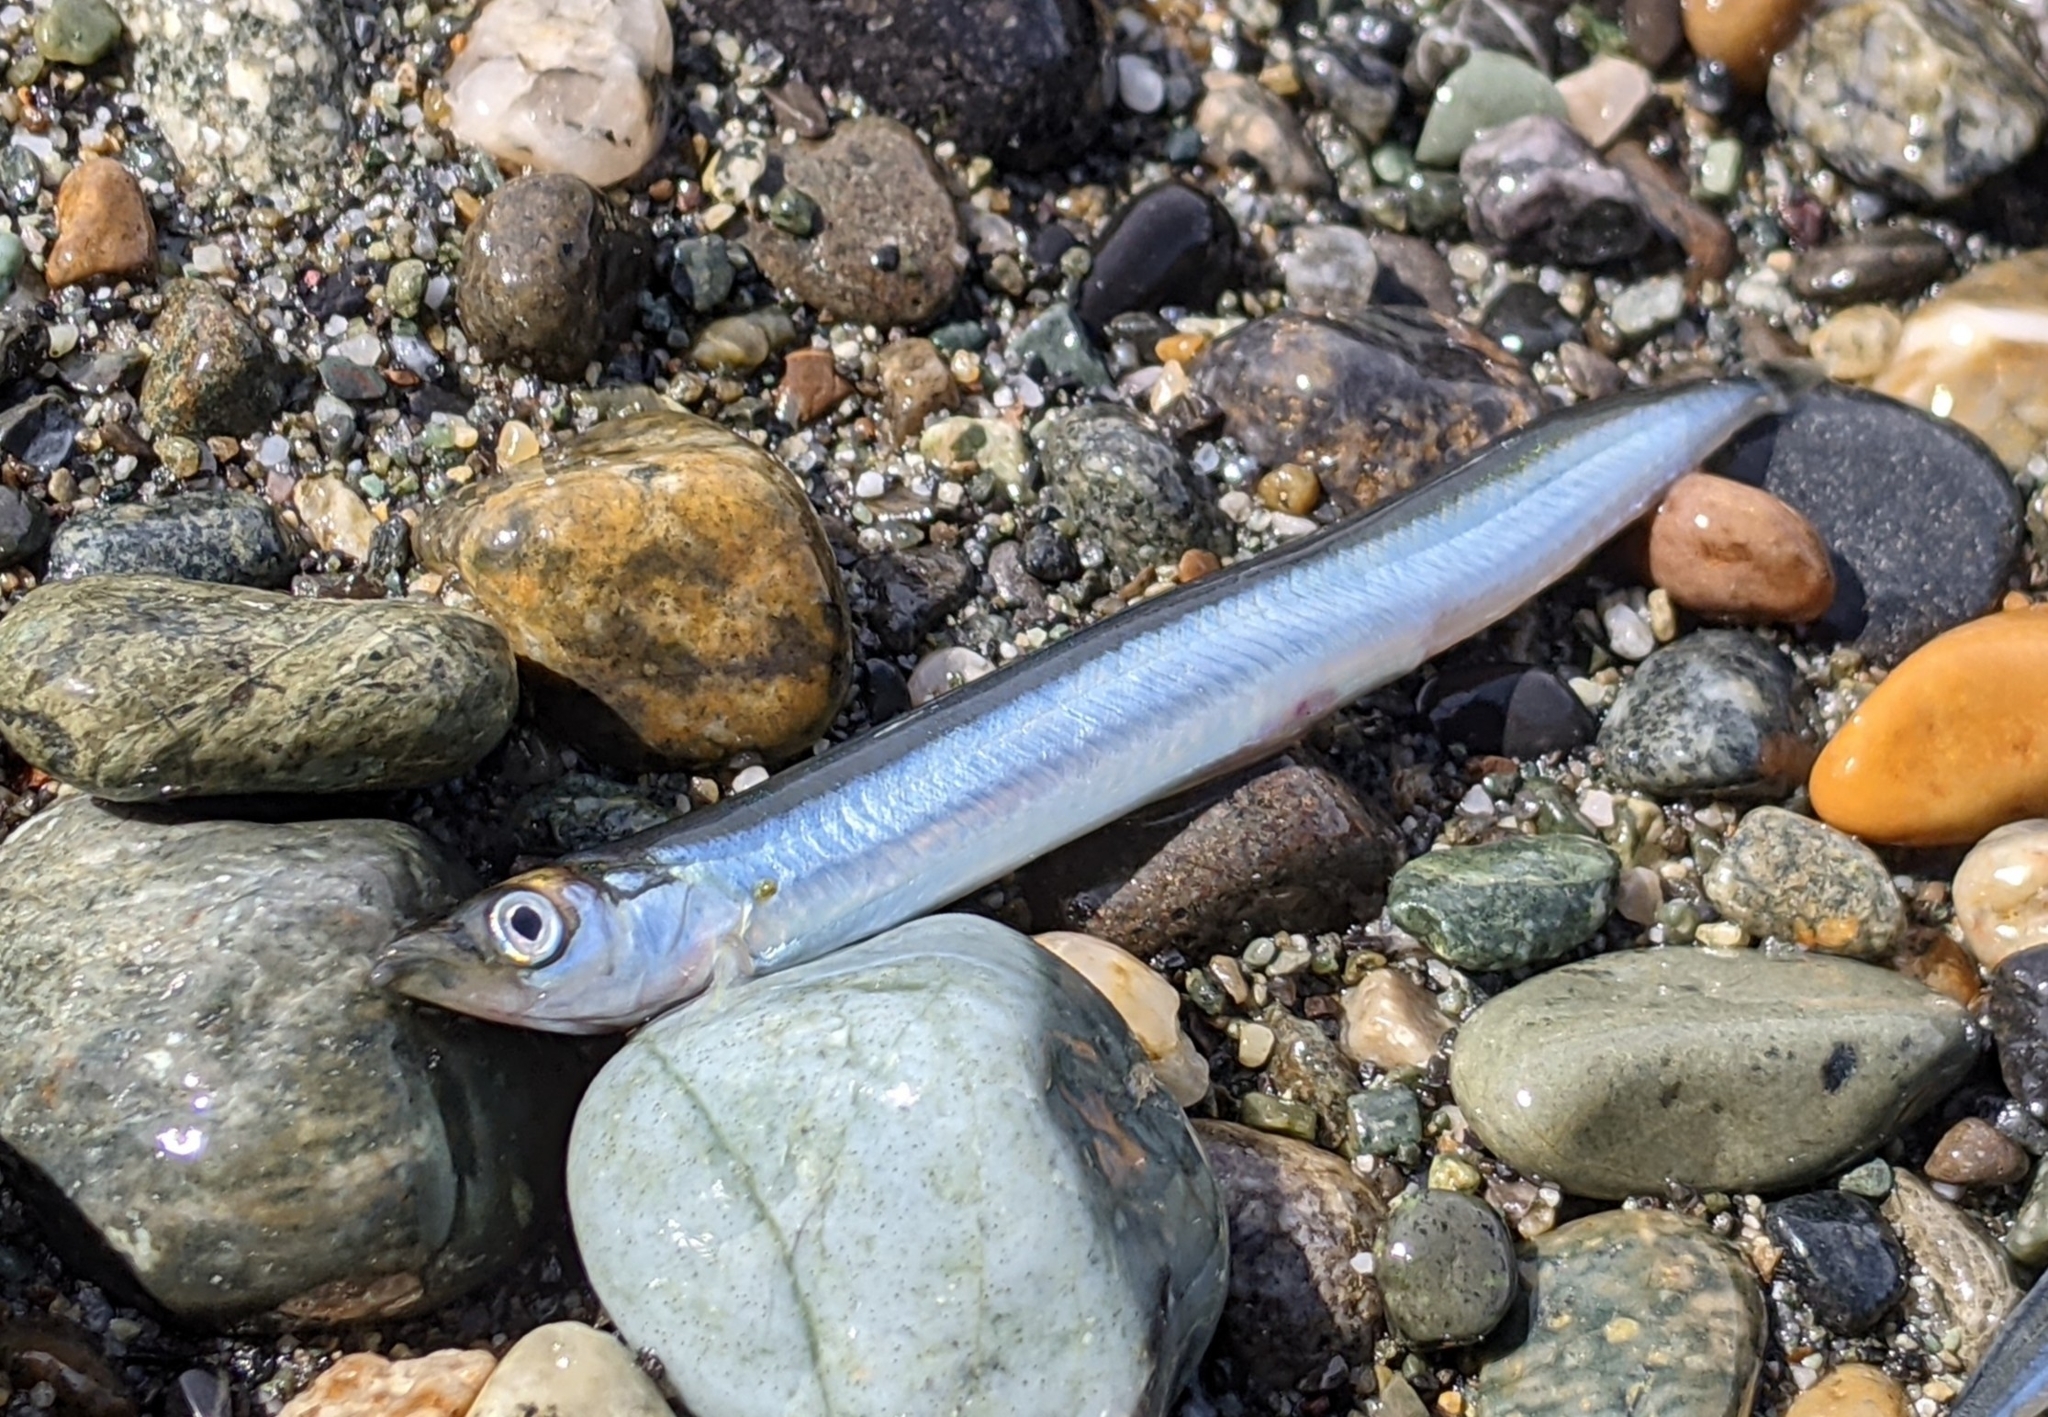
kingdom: Animalia
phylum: Chordata
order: Perciformes
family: Ammodytidae
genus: Ammodytes
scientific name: Ammodytes personatus
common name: Japanese sand lance
